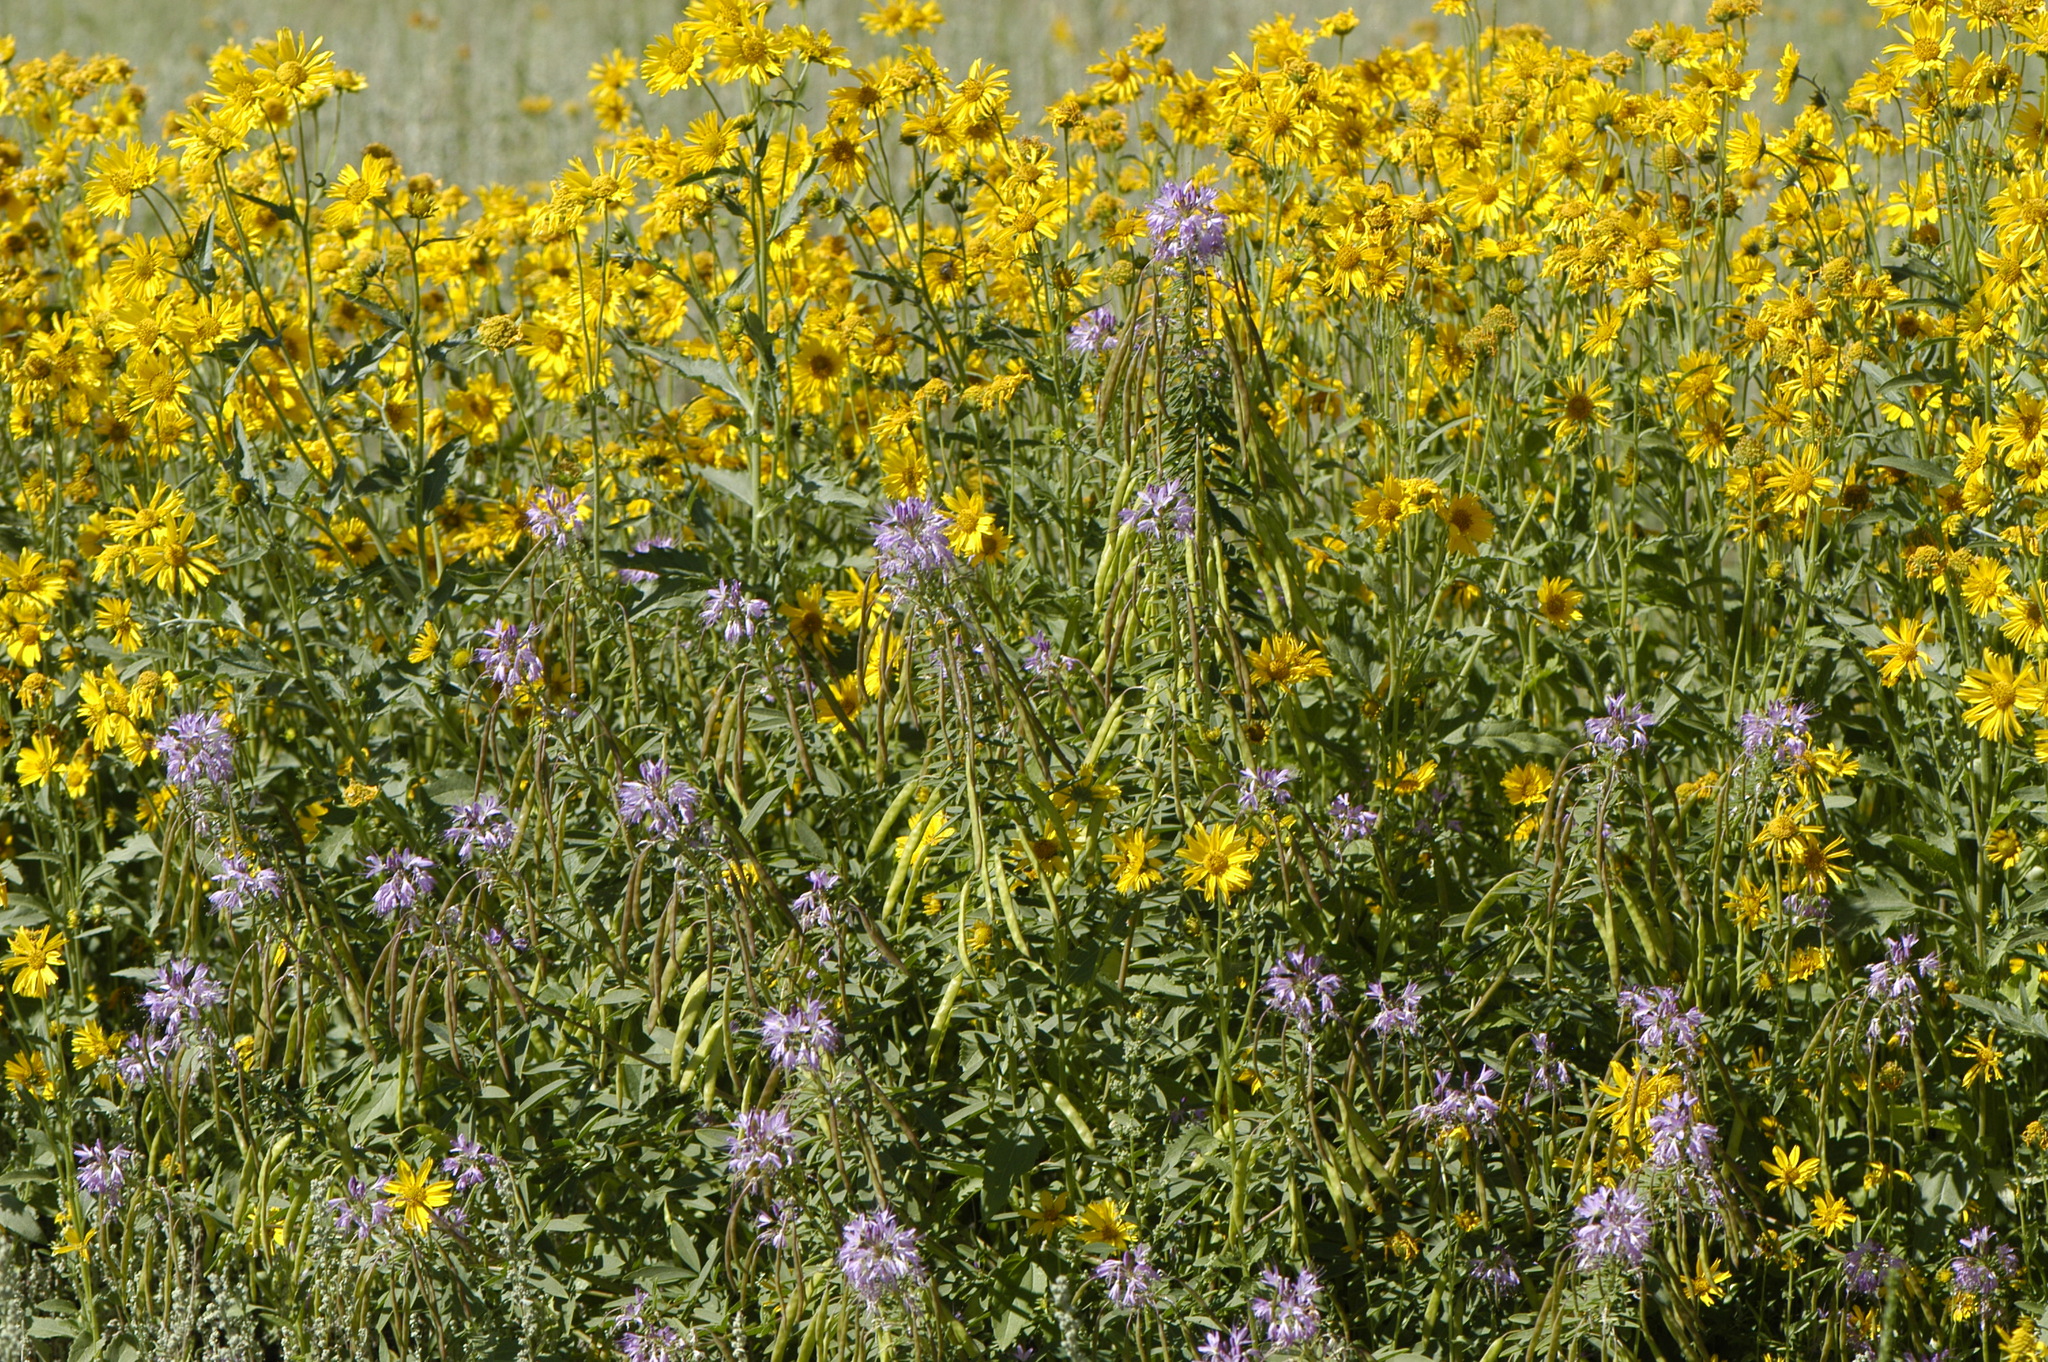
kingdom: Plantae
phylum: Tracheophyta
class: Magnoliopsida
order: Brassicales
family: Cleomaceae
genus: Cleomella
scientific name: Cleomella serrulata
